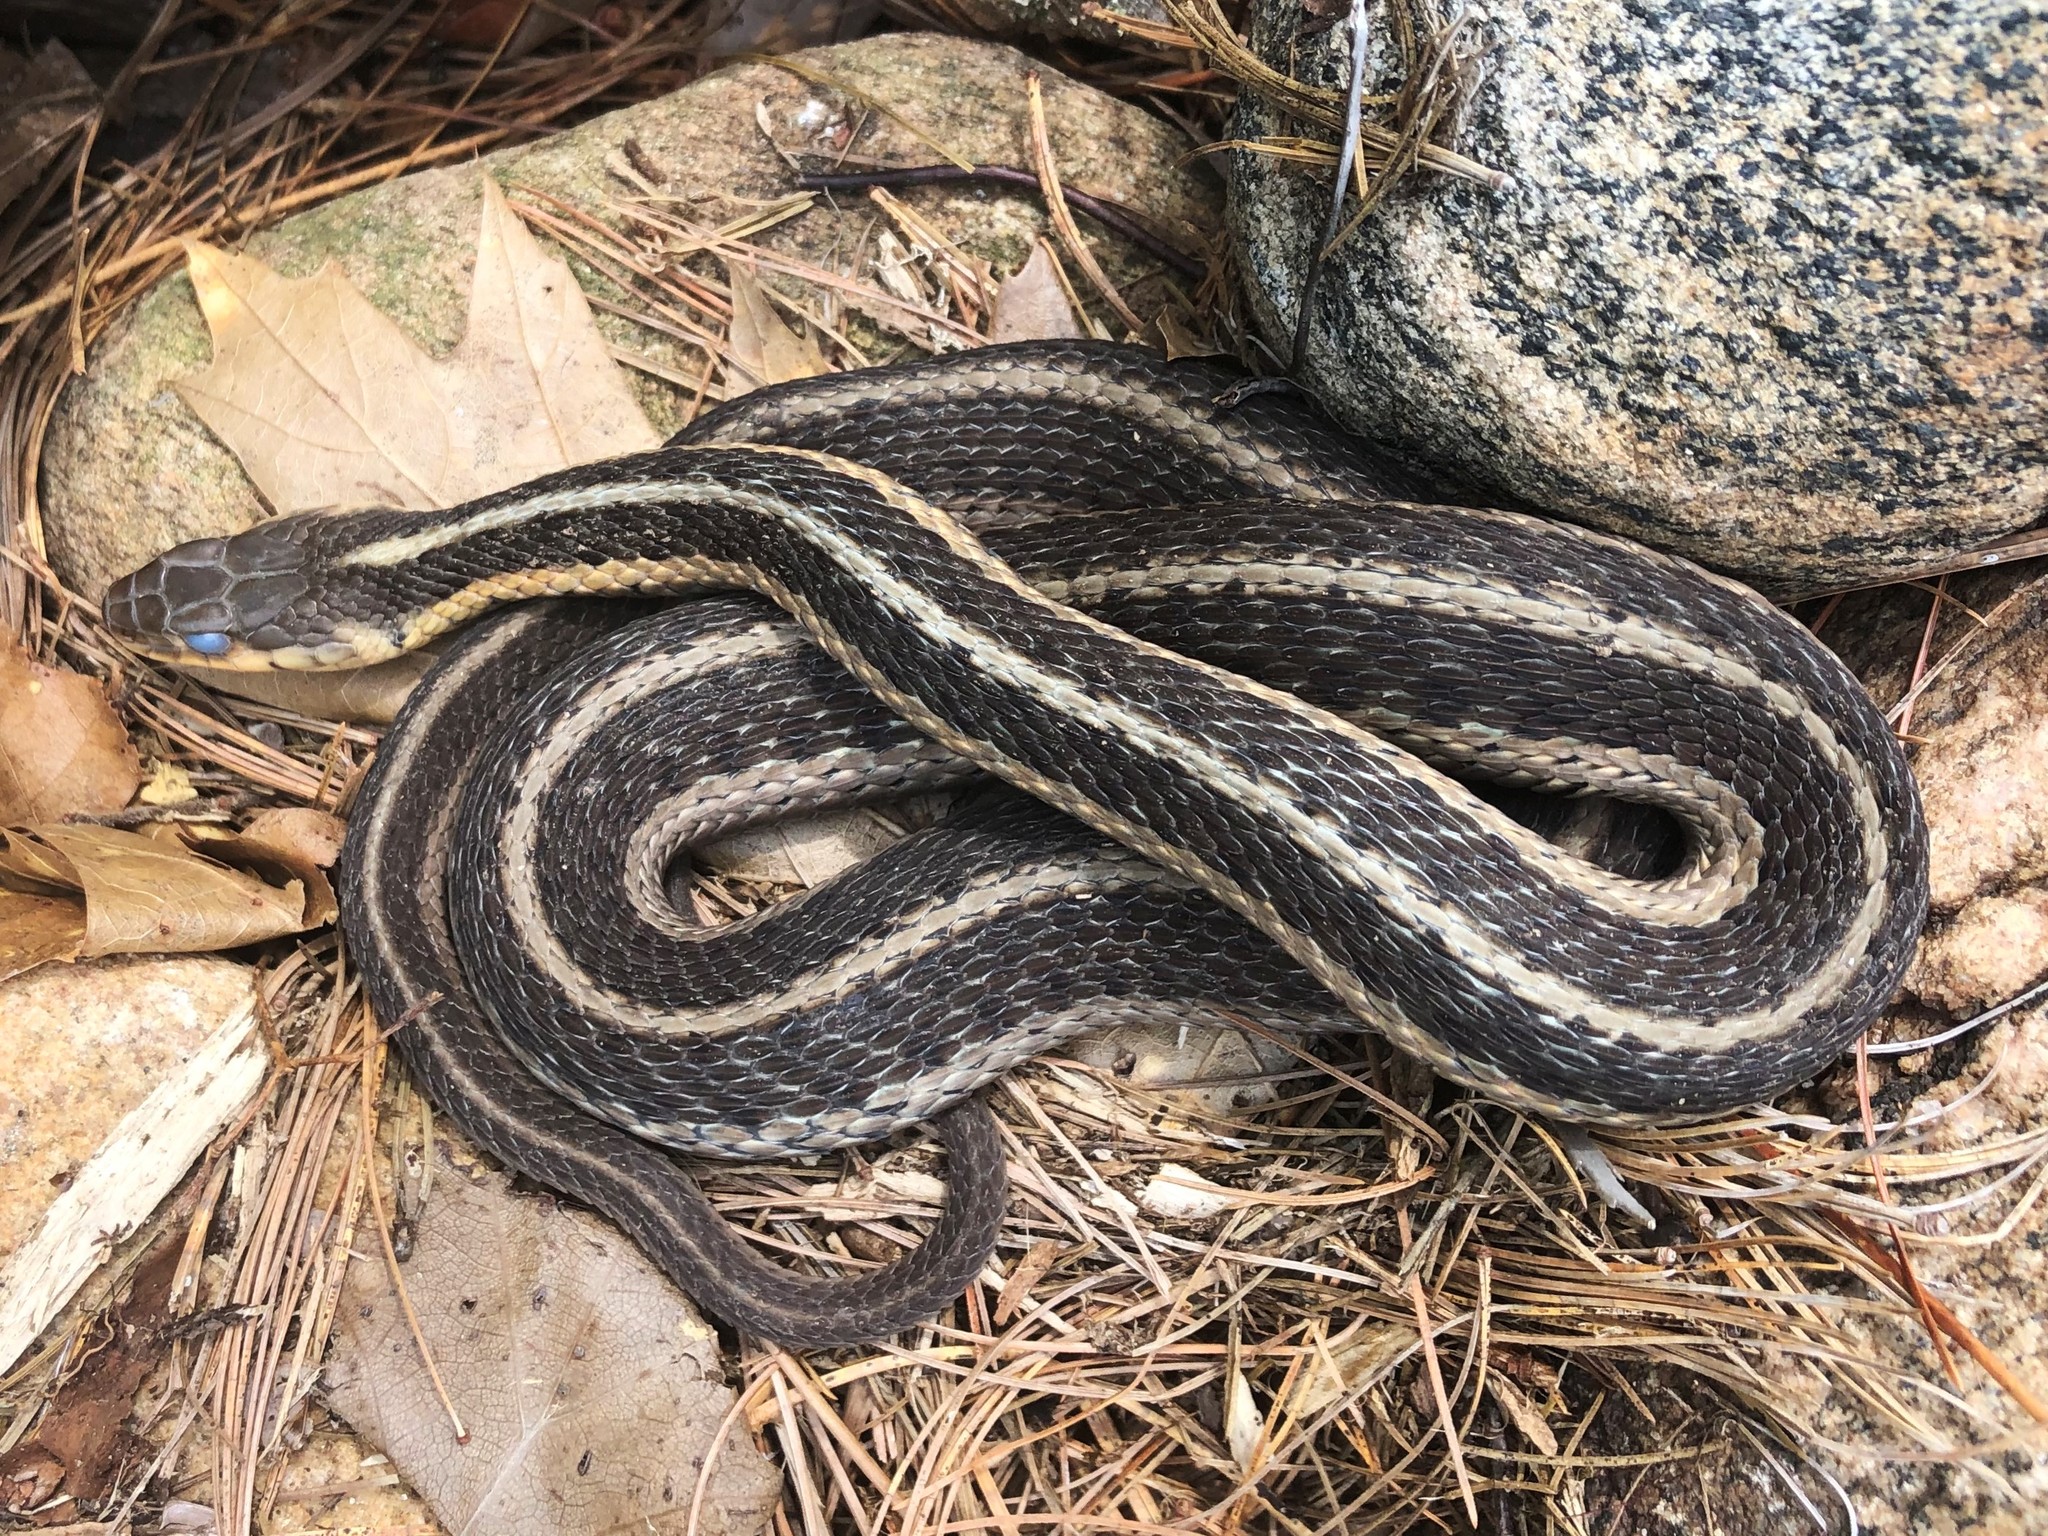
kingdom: Animalia
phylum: Chordata
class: Squamata
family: Colubridae
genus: Thamnophis
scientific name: Thamnophis sirtalis
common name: Common garter snake
